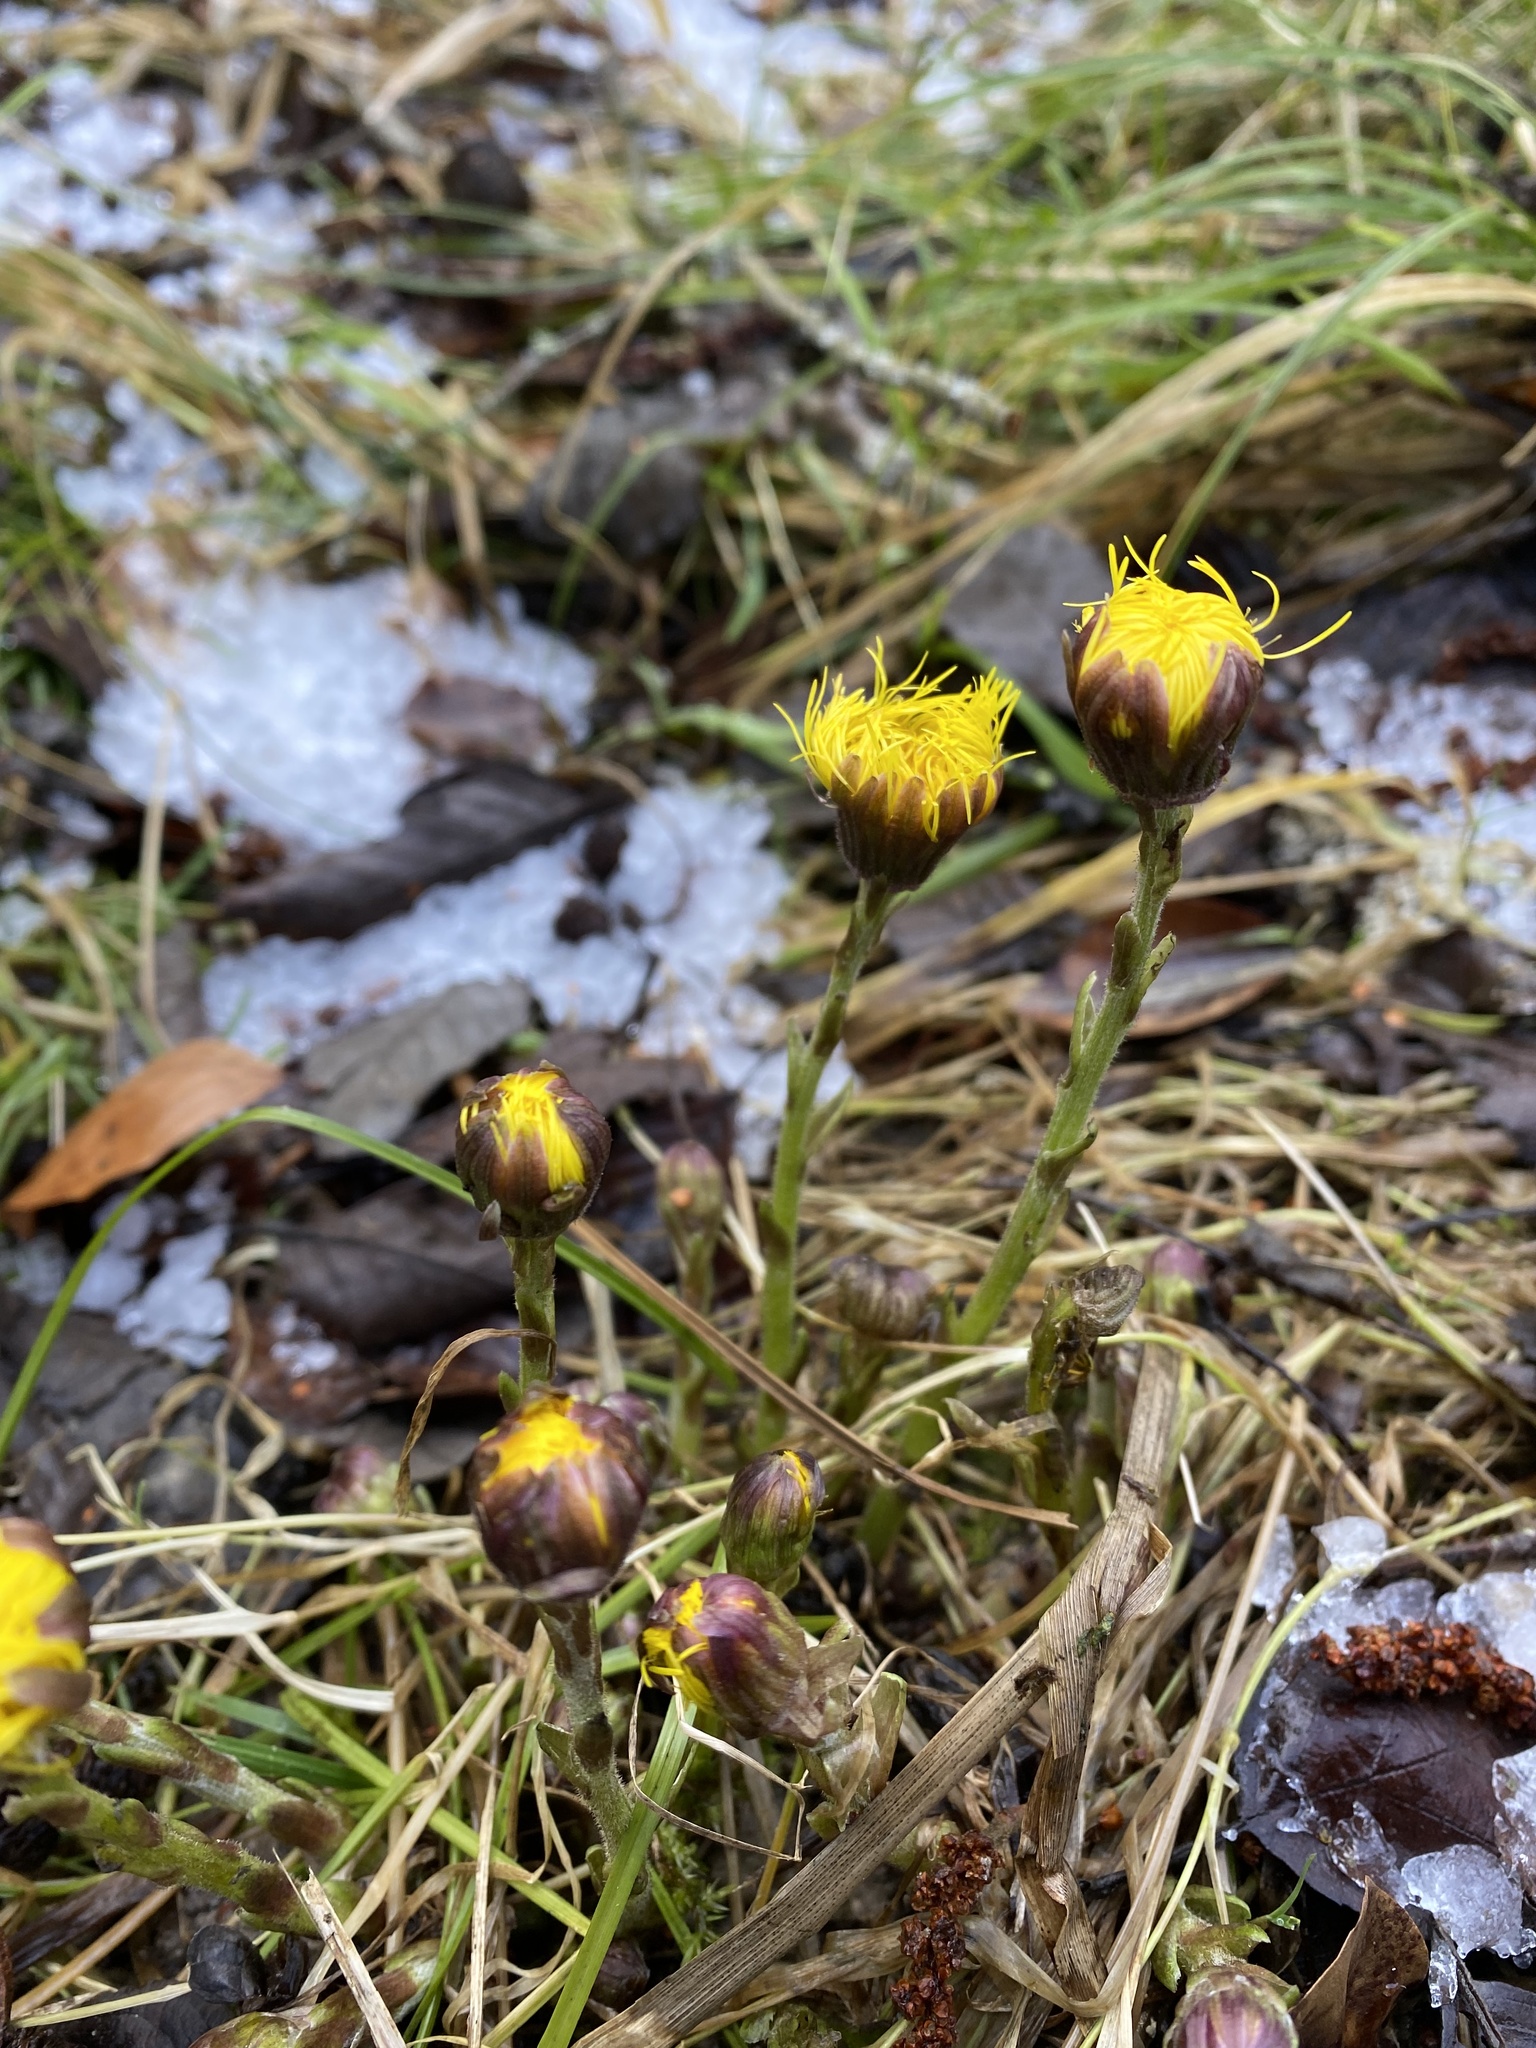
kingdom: Plantae
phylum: Tracheophyta
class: Magnoliopsida
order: Asterales
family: Asteraceae
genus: Tussilago
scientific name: Tussilago farfara
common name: Coltsfoot
